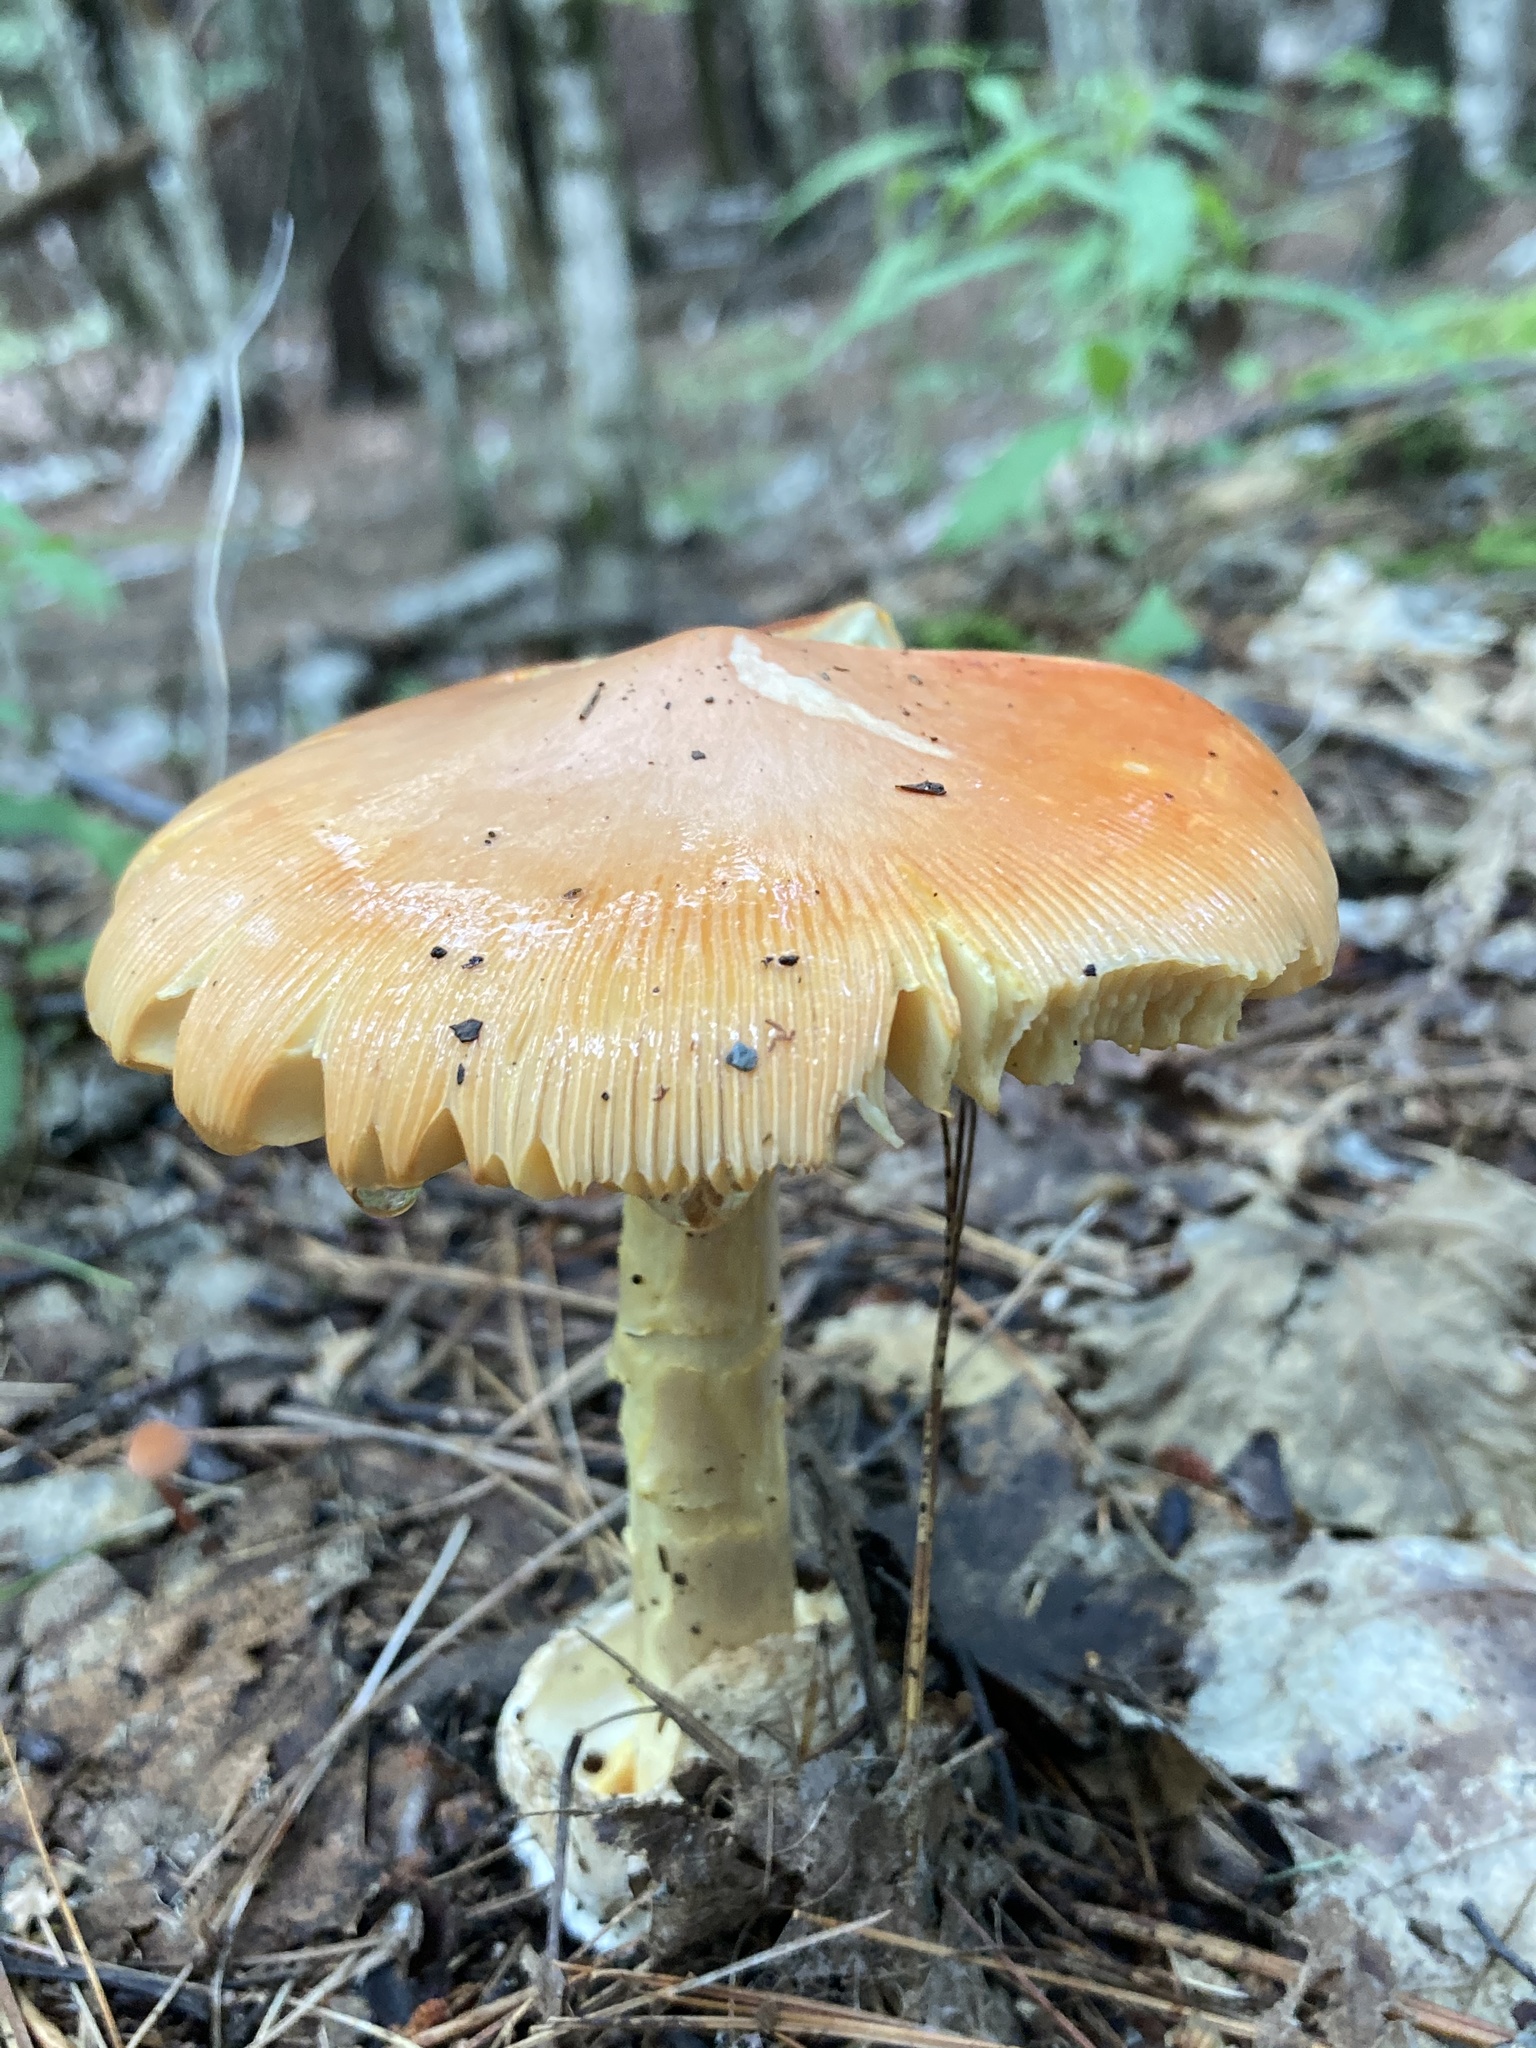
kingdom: Fungi
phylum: Basidiomycota
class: Agaricomycetes
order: Agaricales
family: Amanitaceae
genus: Amanita
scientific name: Amanita jacksonii
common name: Jackson's slender caesar
